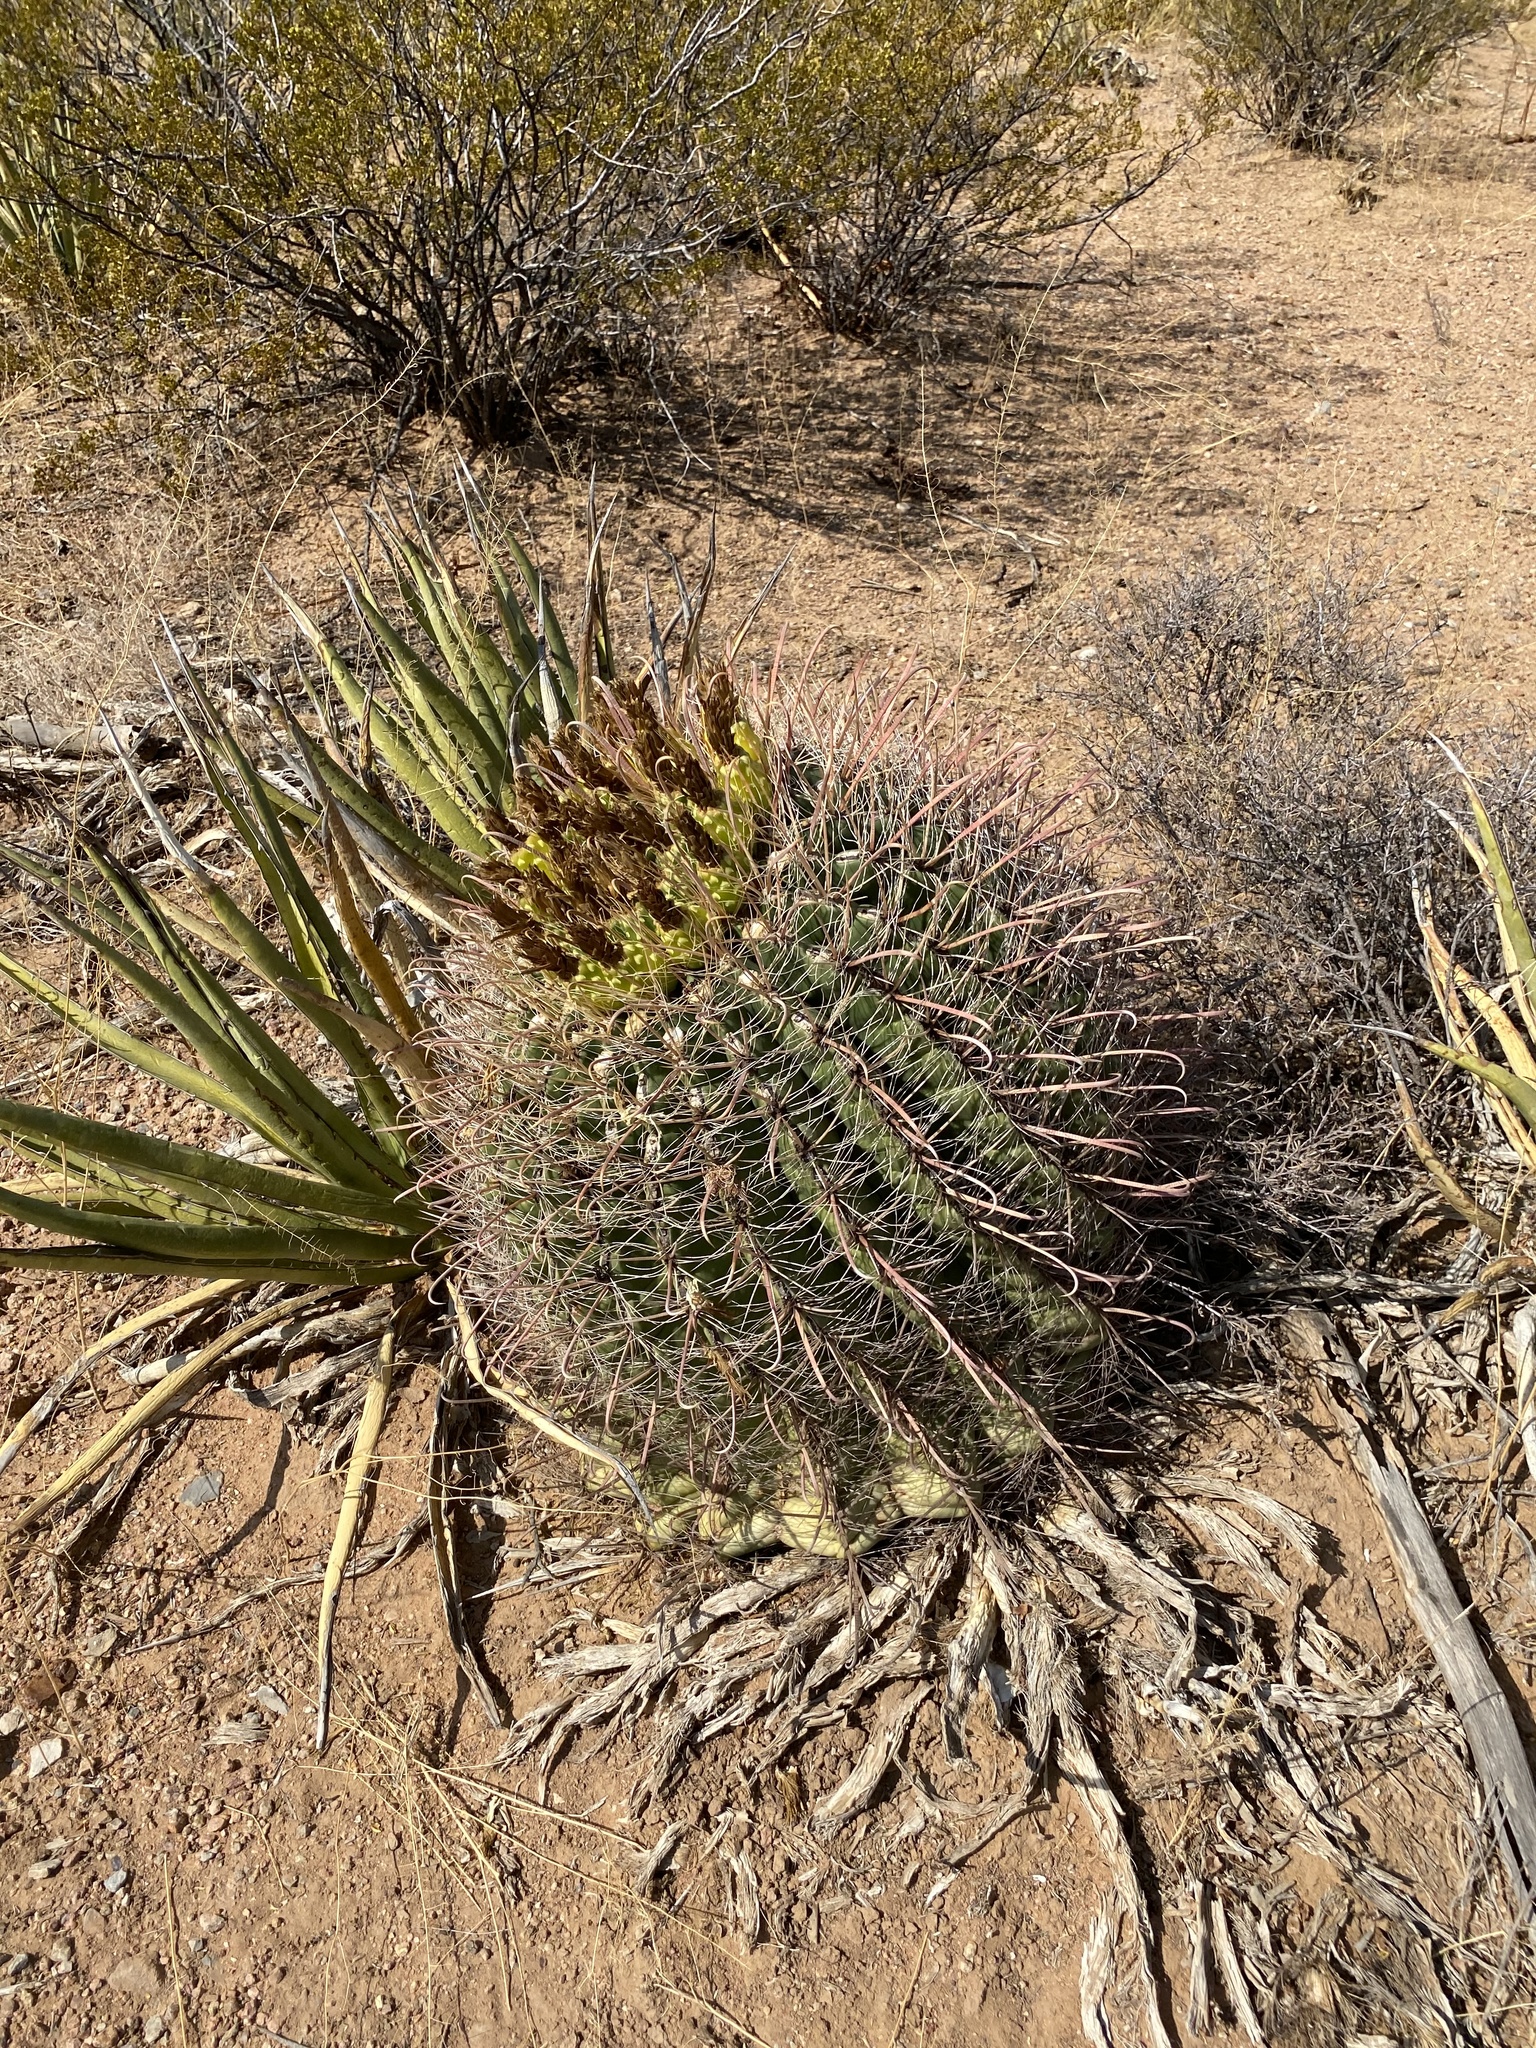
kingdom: Plantae
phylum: Tracheophyta
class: Magnoliopsida
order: Caryophyllales
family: Cactaceae
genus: Ferocactus
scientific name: Ferocactus wislizeni
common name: Candy barrel cactus
